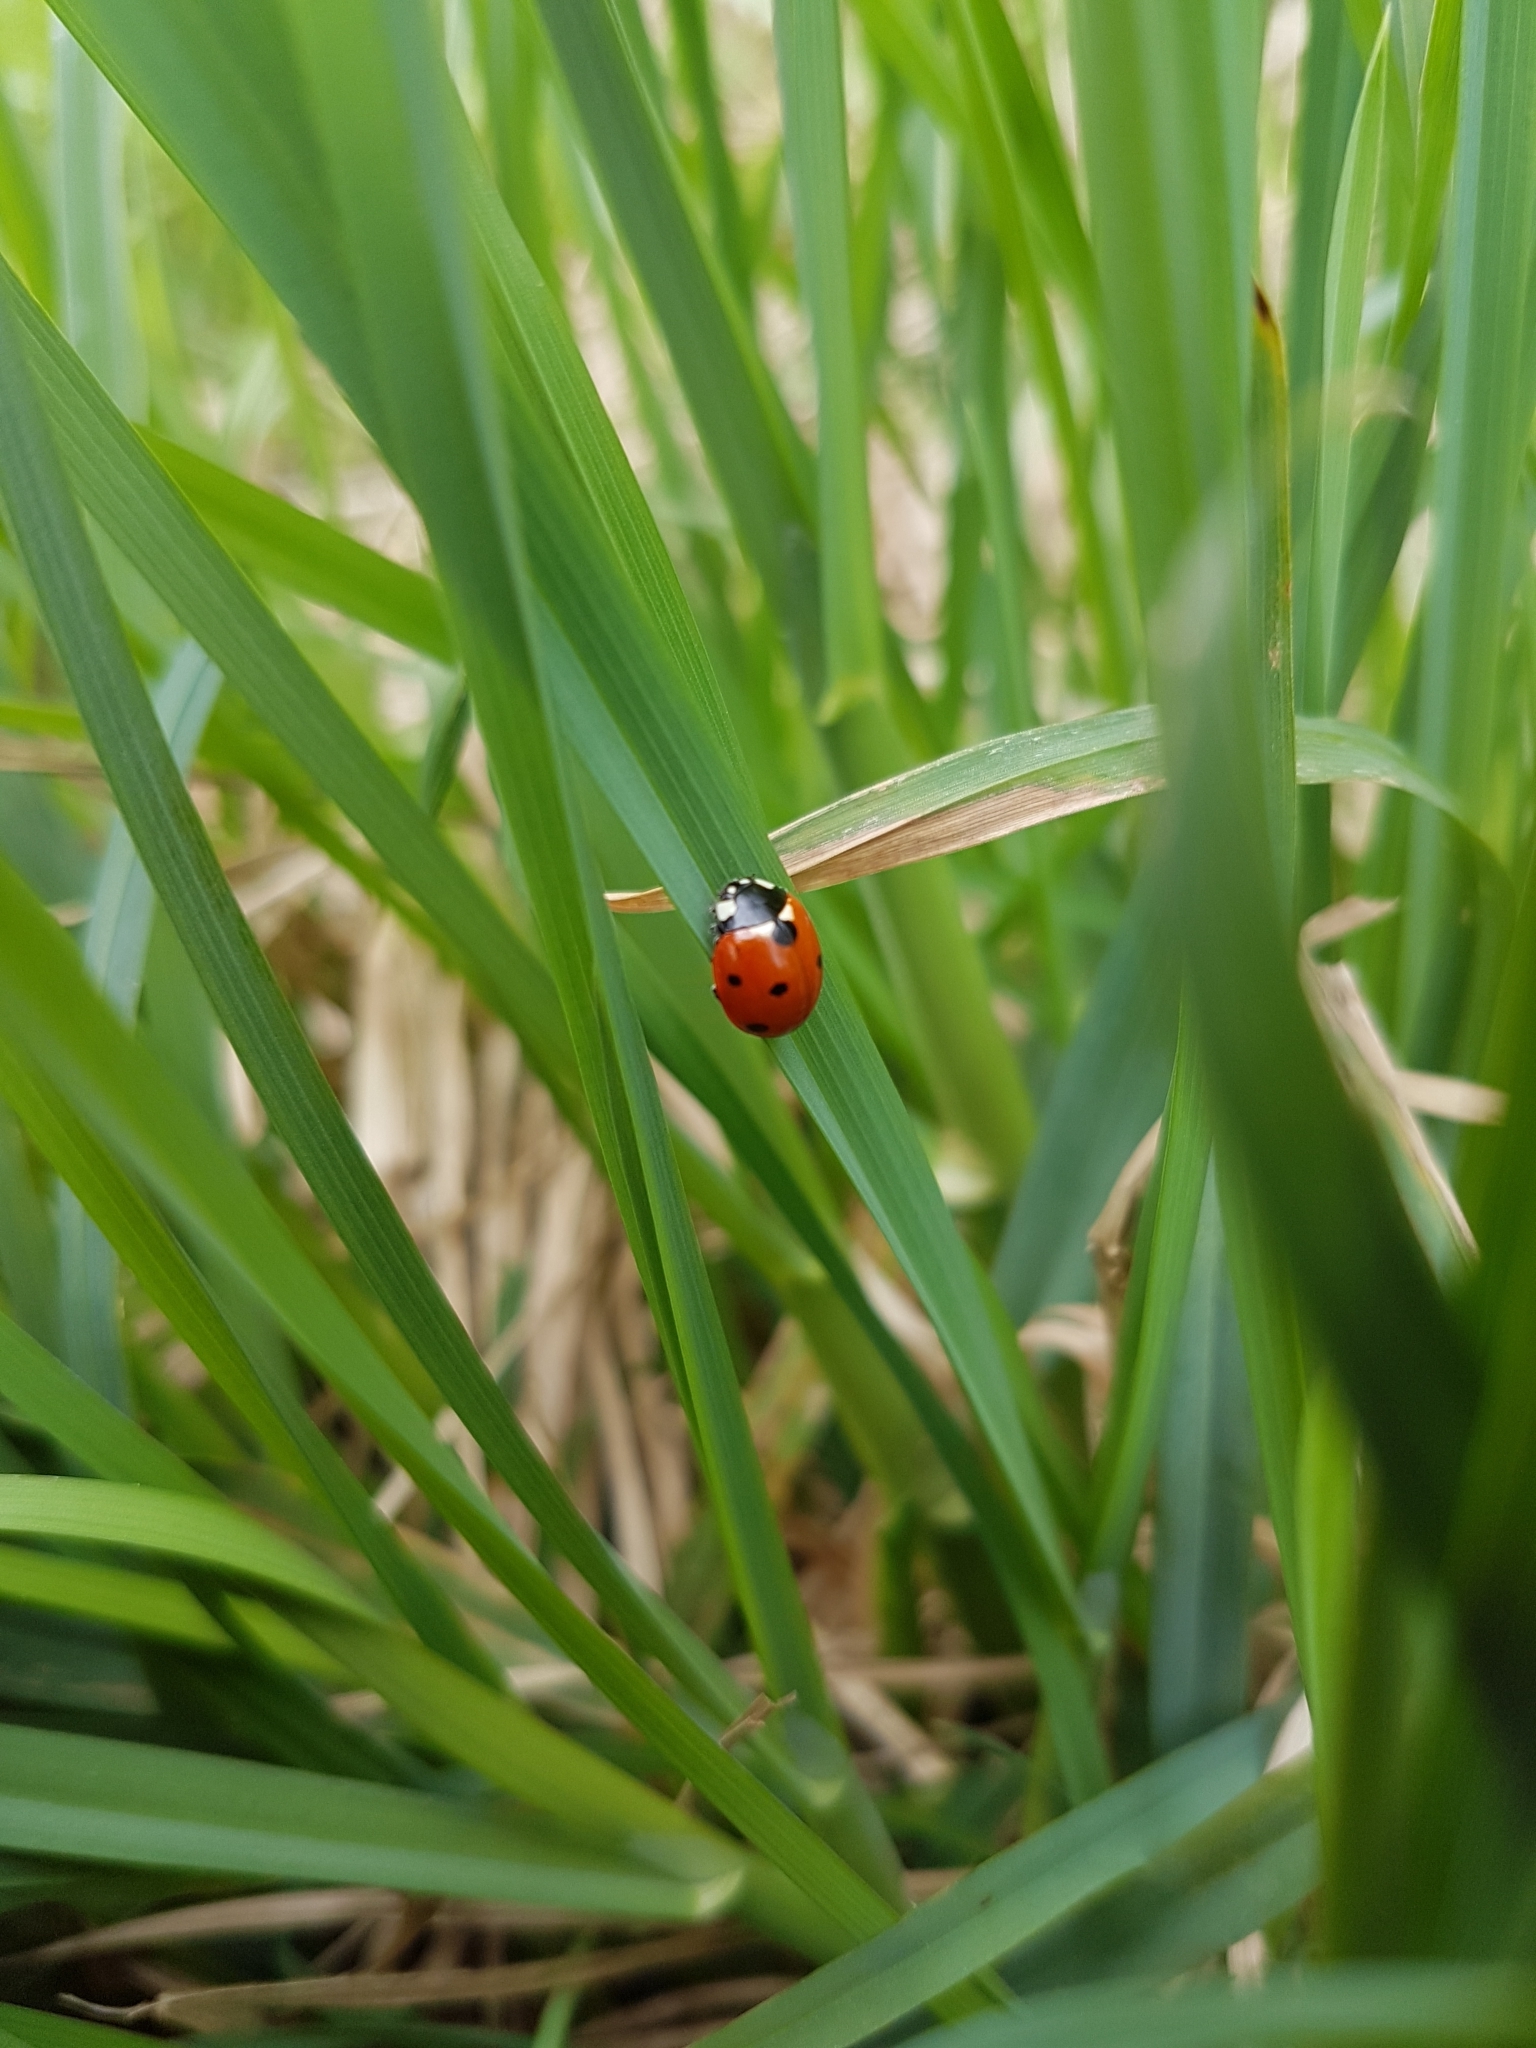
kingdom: Animalia
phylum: Arthropoda
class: Insecta
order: Coleoptera
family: Coccinellidae
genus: Coccinella
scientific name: Coccinella septempunctata
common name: Sevenspotted lady beetle
